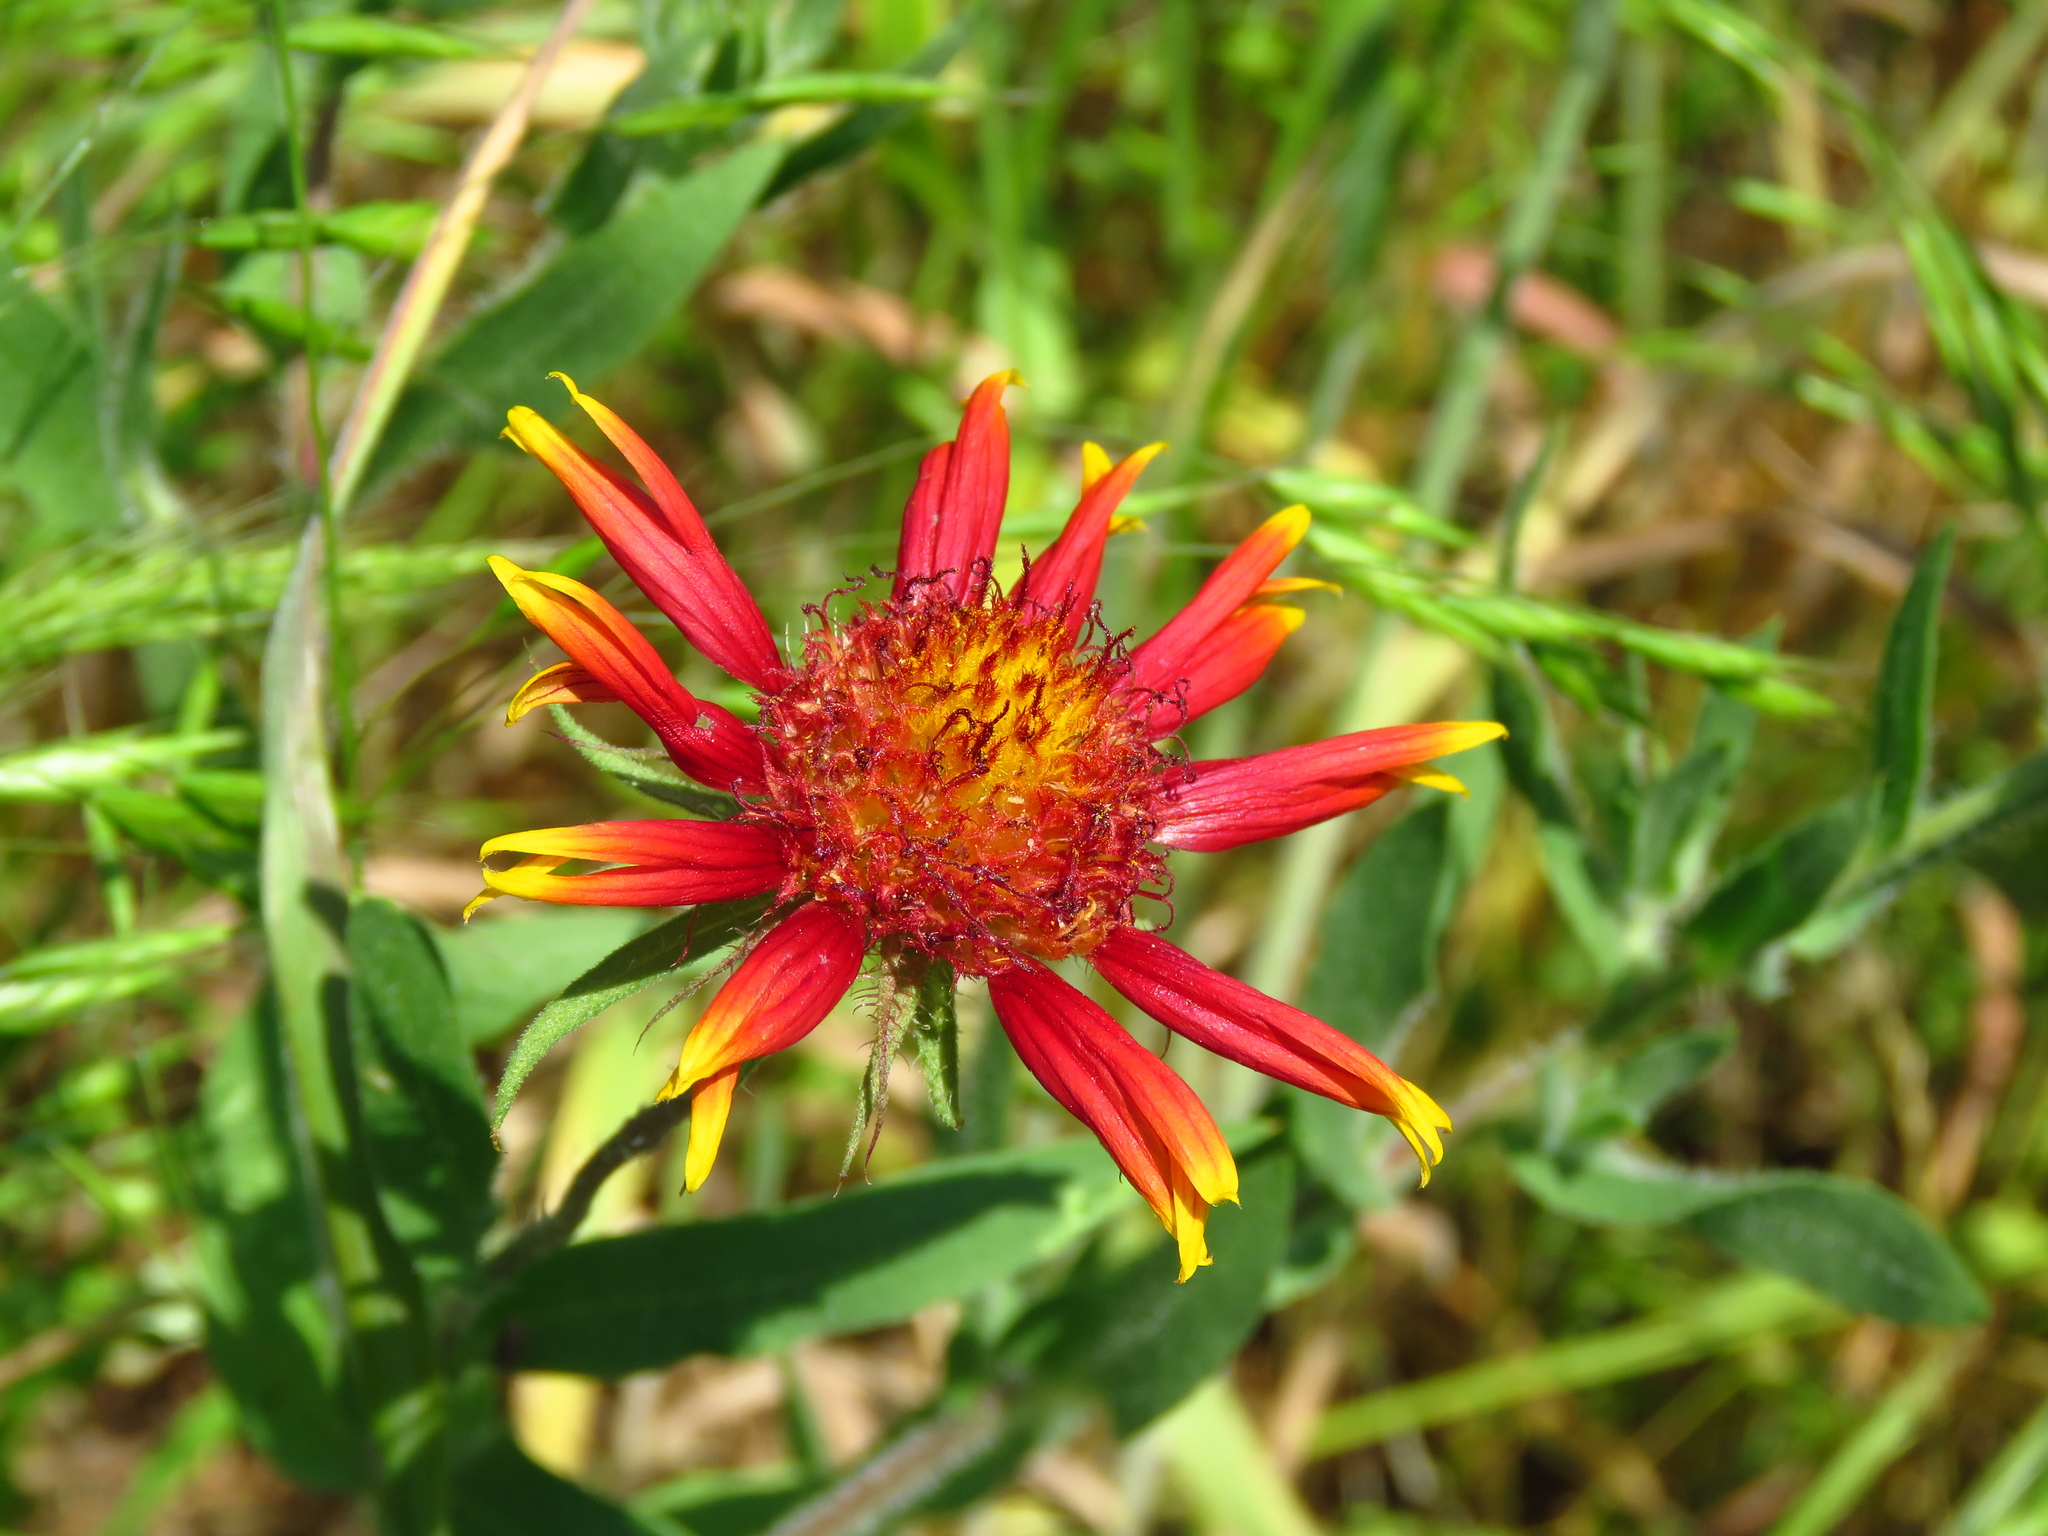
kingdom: Plantae
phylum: Tracheophyta
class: Magnoliopsida
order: Asterales
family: Asteraceae
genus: Gaillardia
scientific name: Gaillardia pulchella
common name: Firewheel
